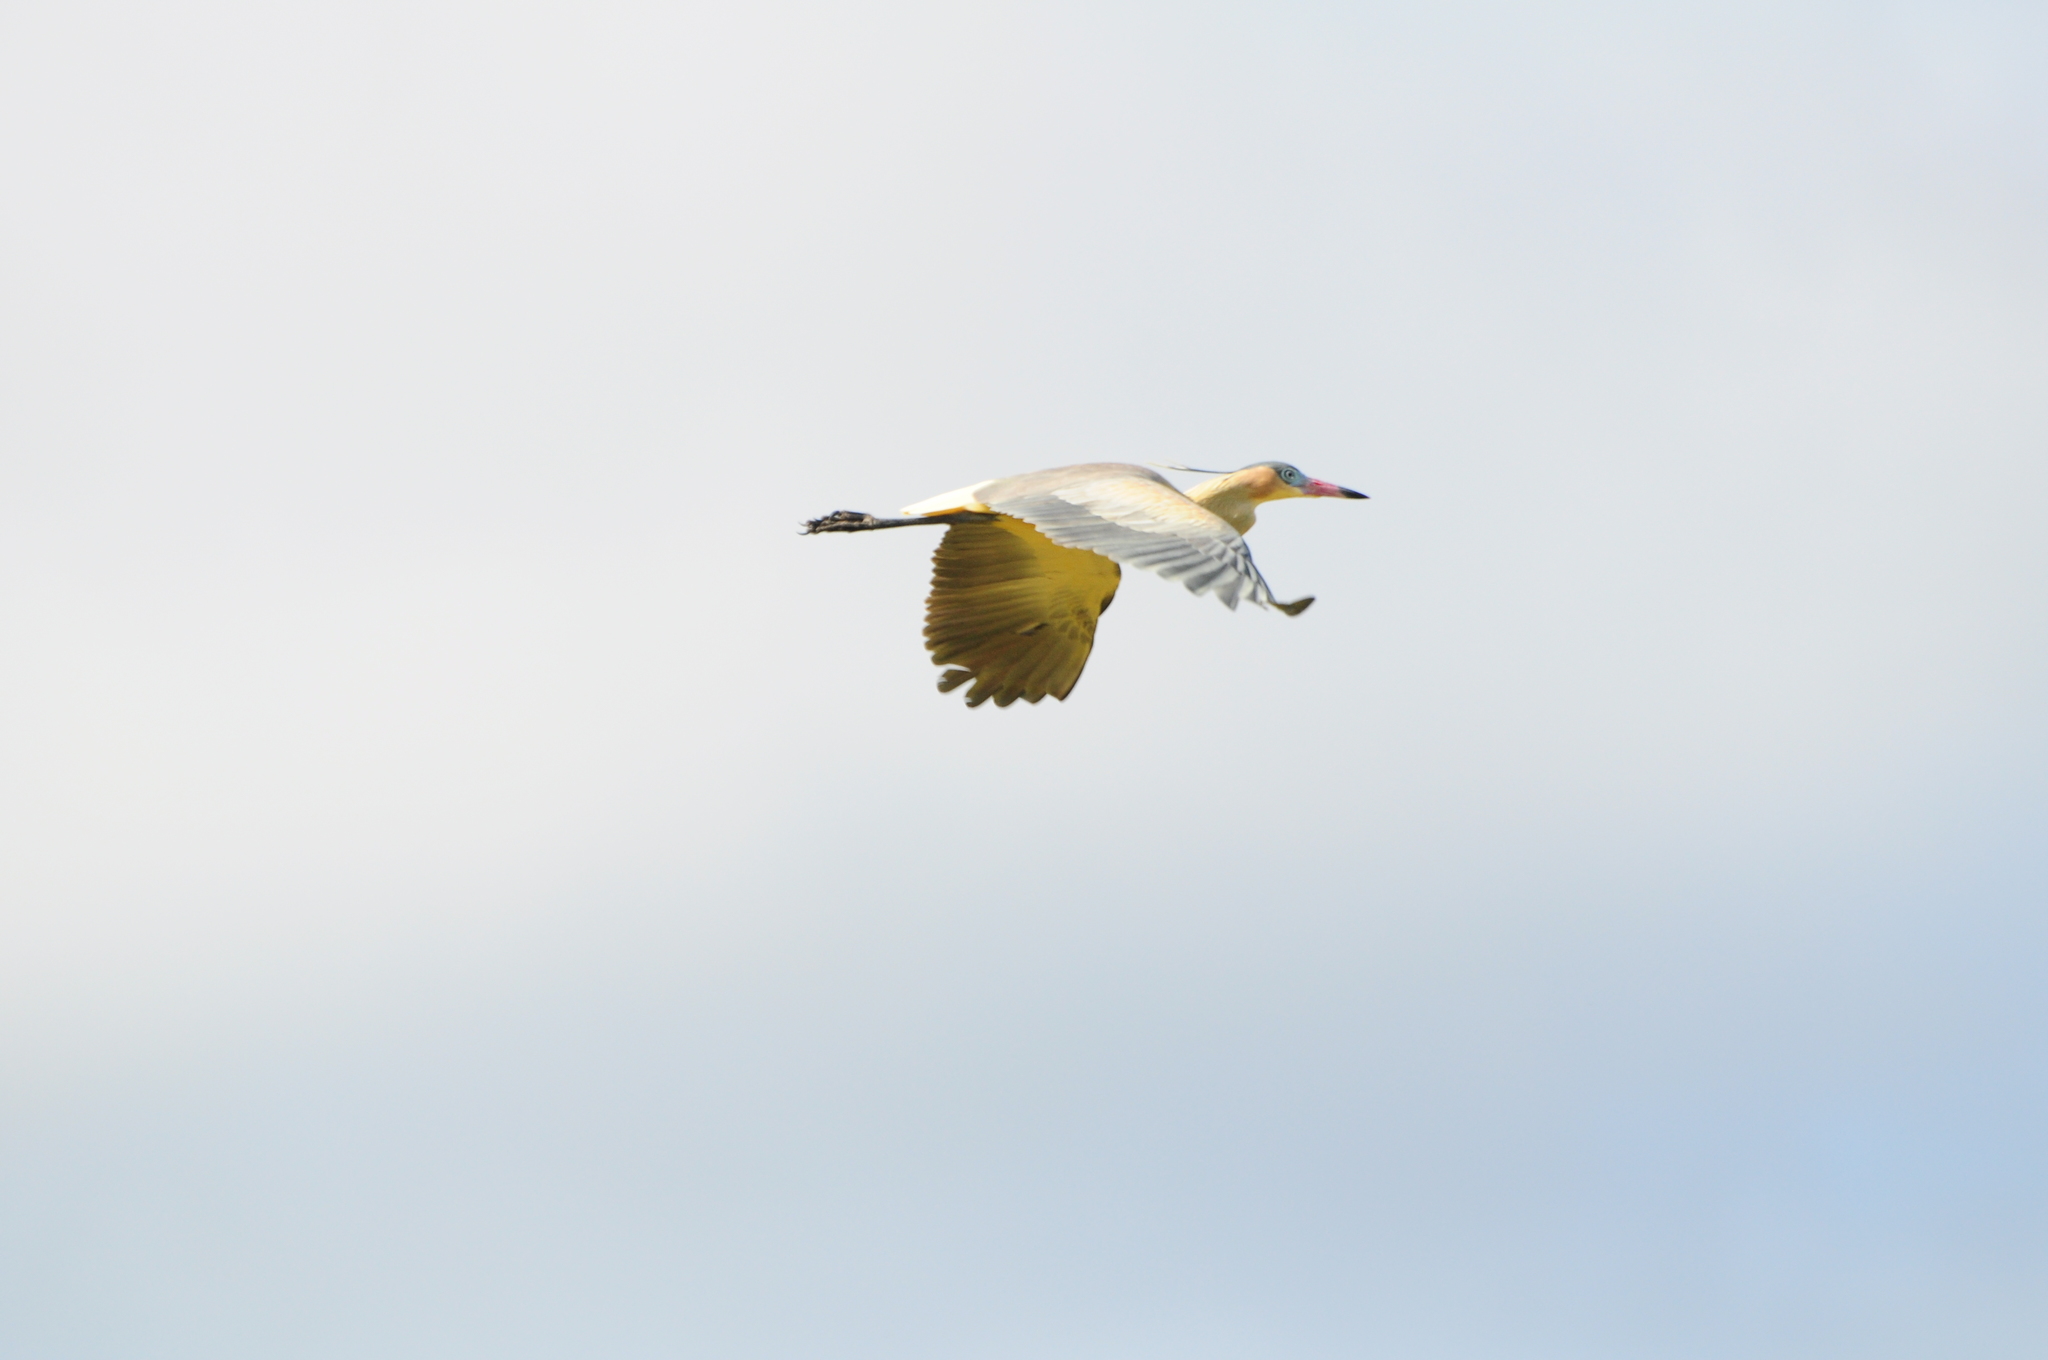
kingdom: Animalia
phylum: Chordata
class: Aves
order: Pelecaniformes
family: Ardeidae
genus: Syrigma
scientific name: Syrigma sibilatrix
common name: Whistling heron
